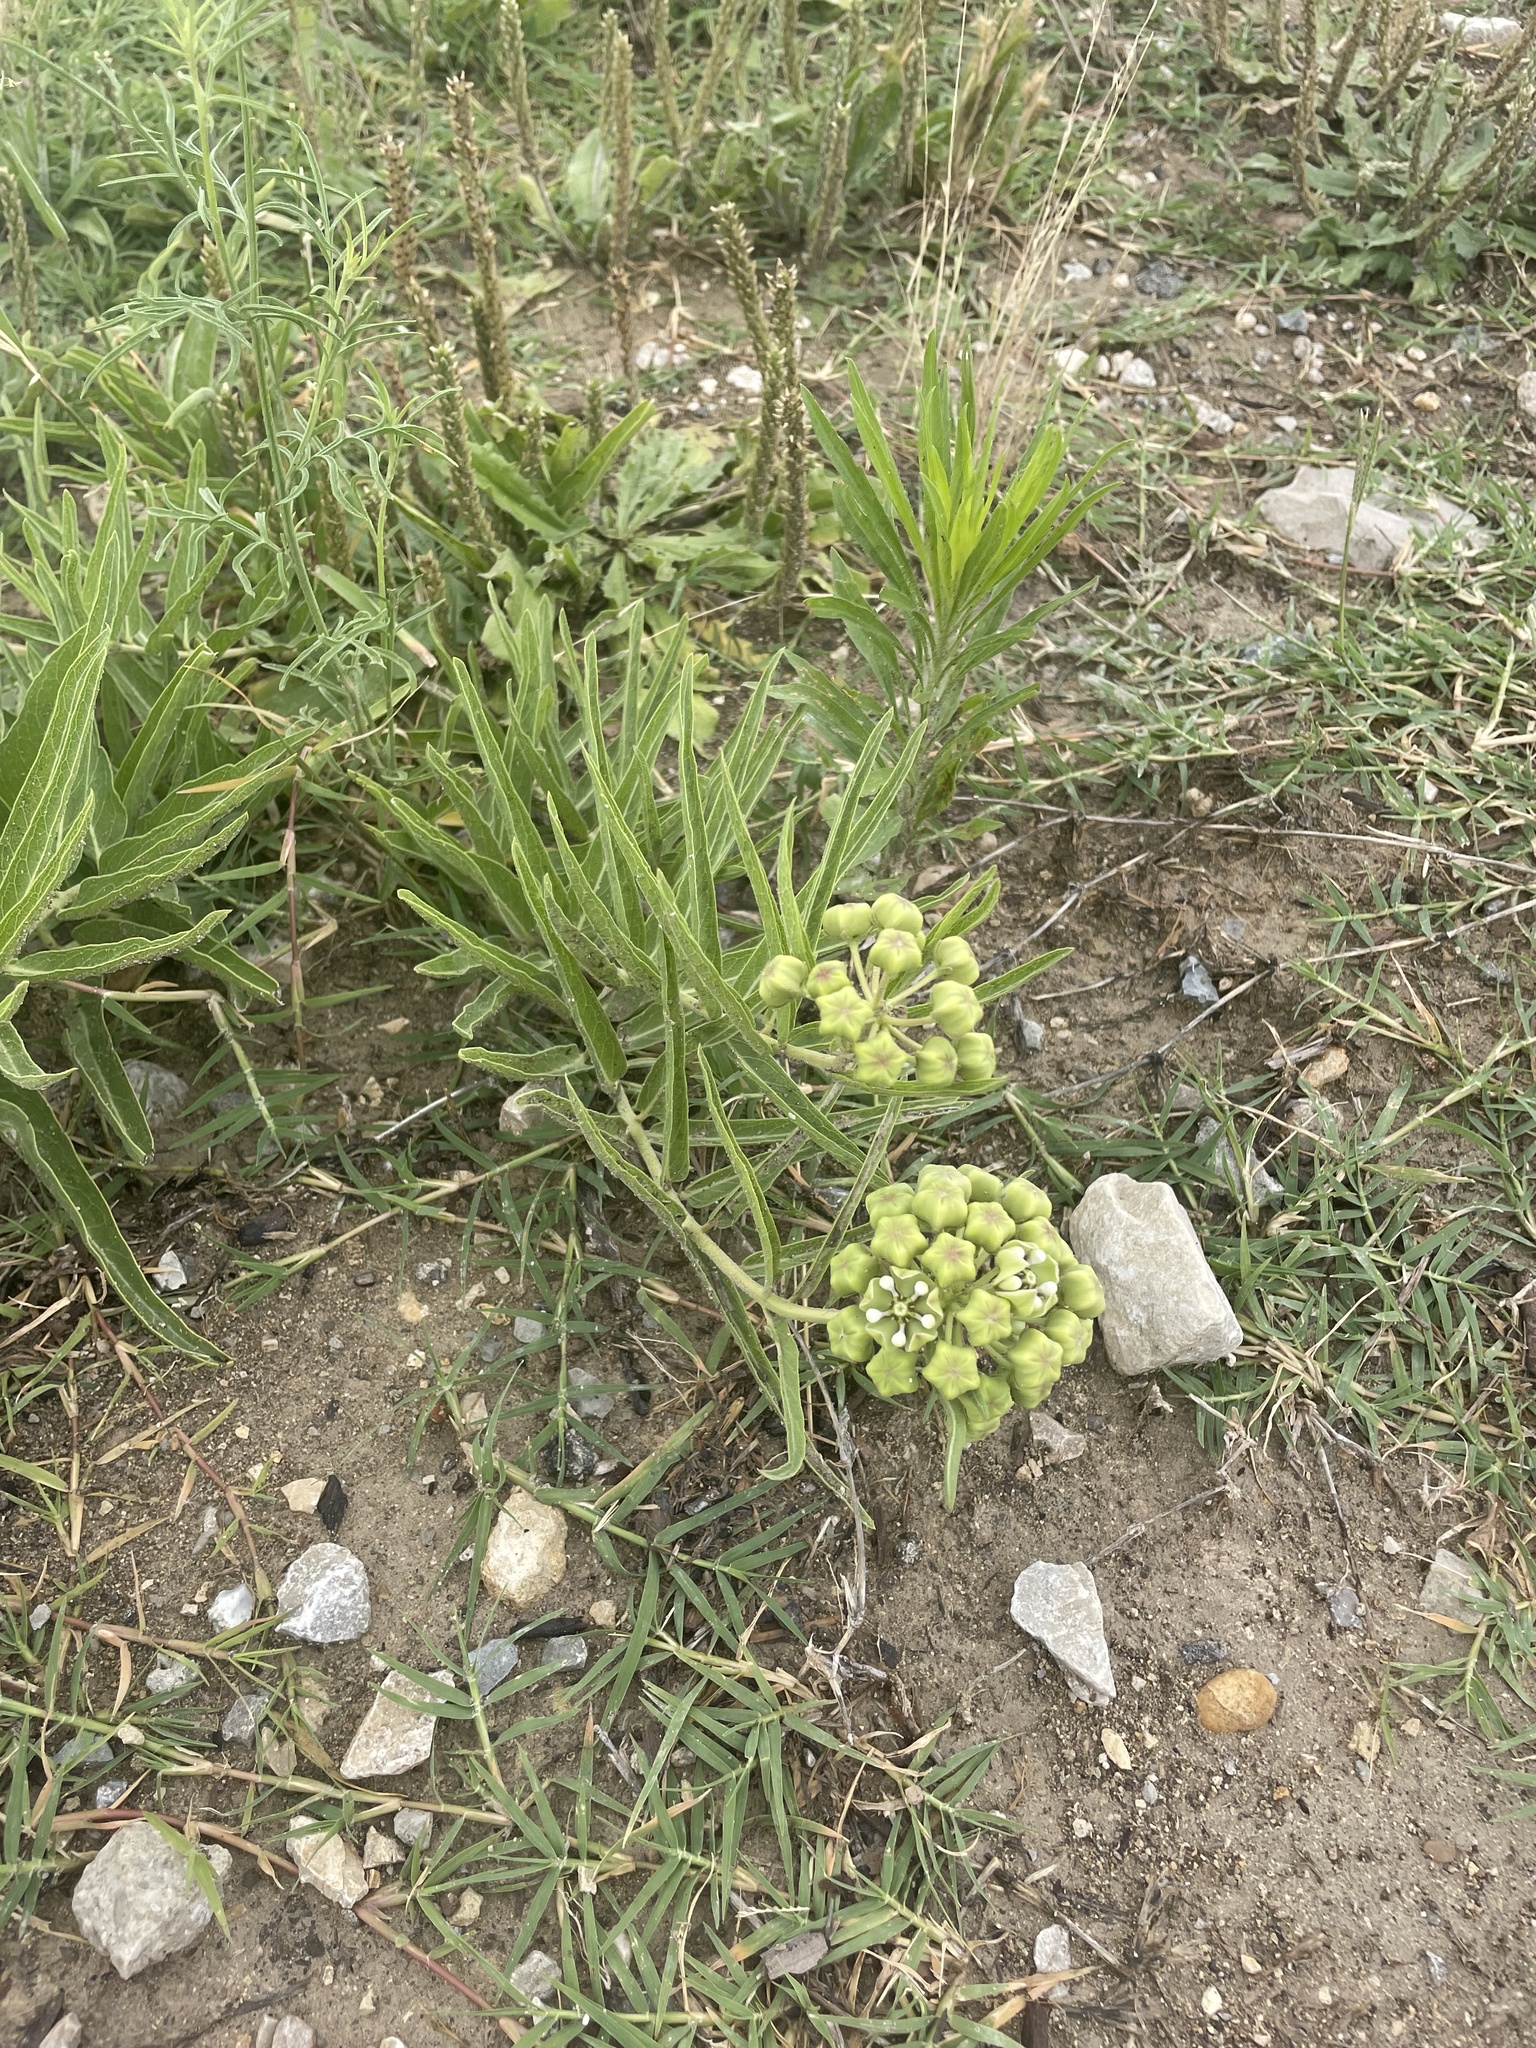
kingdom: Plantae
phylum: Tracheophyta
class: Magnoliopsida
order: Gentianales
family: Apocynaceae
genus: Asclepias
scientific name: Asclepias asperula
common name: Antelope horns
